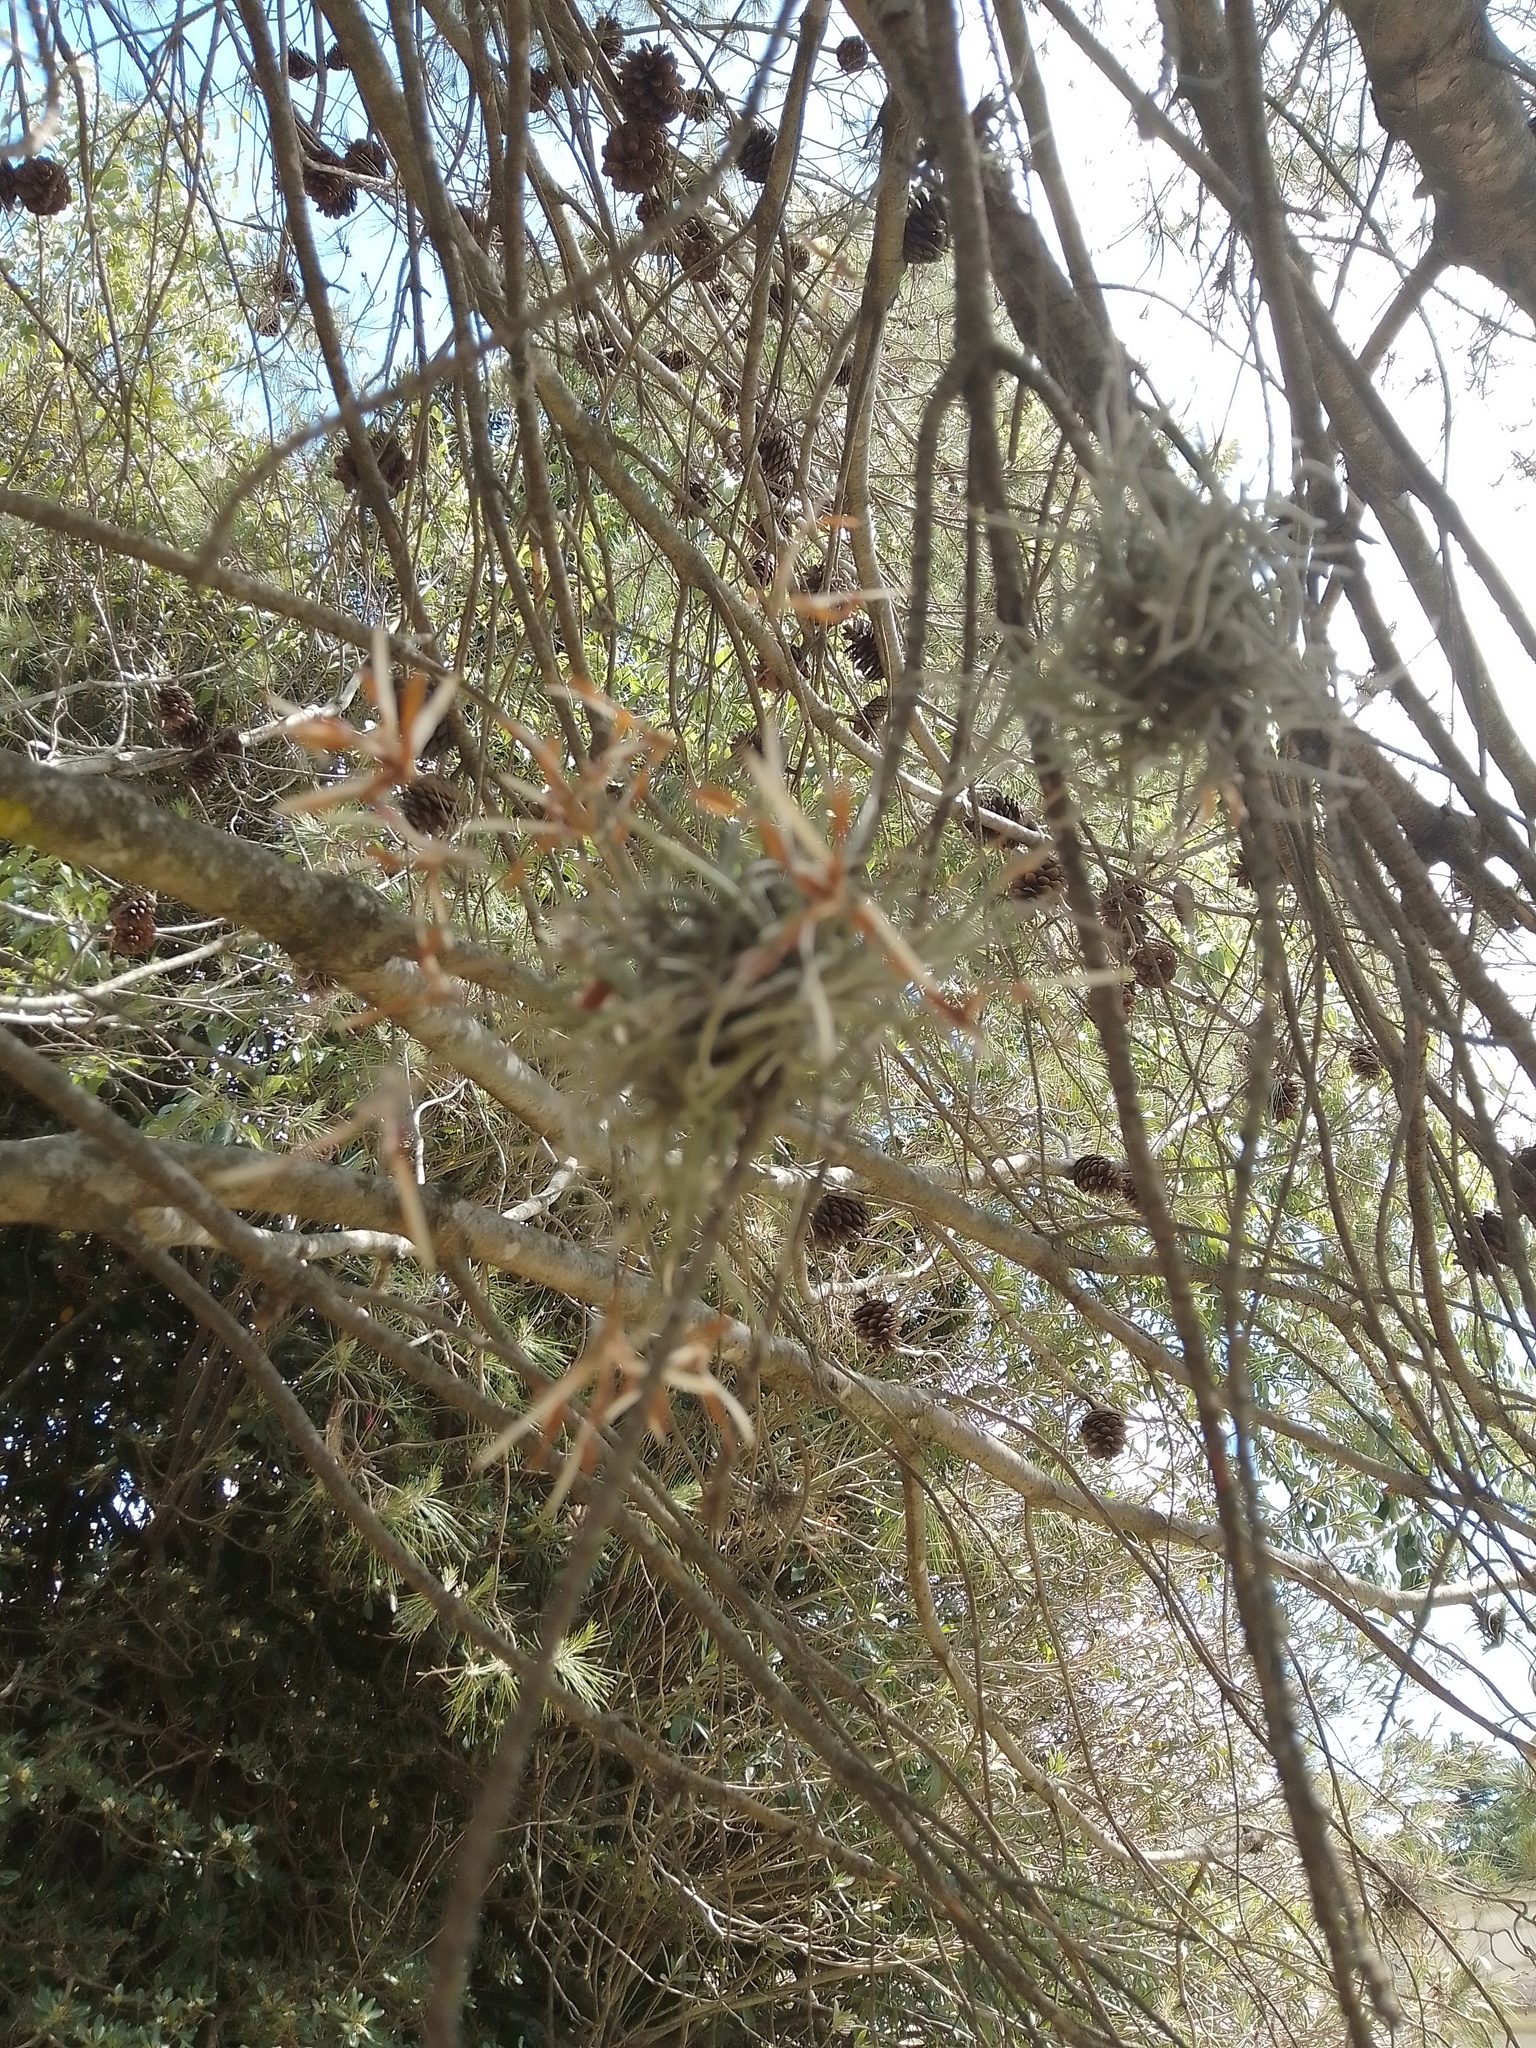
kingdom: Plantae
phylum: Tracheophyta
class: Liliopsida
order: Poales
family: Bromeliaceae
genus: Tillandsia
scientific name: Tillandsia recurvata
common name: Small ballmoss
